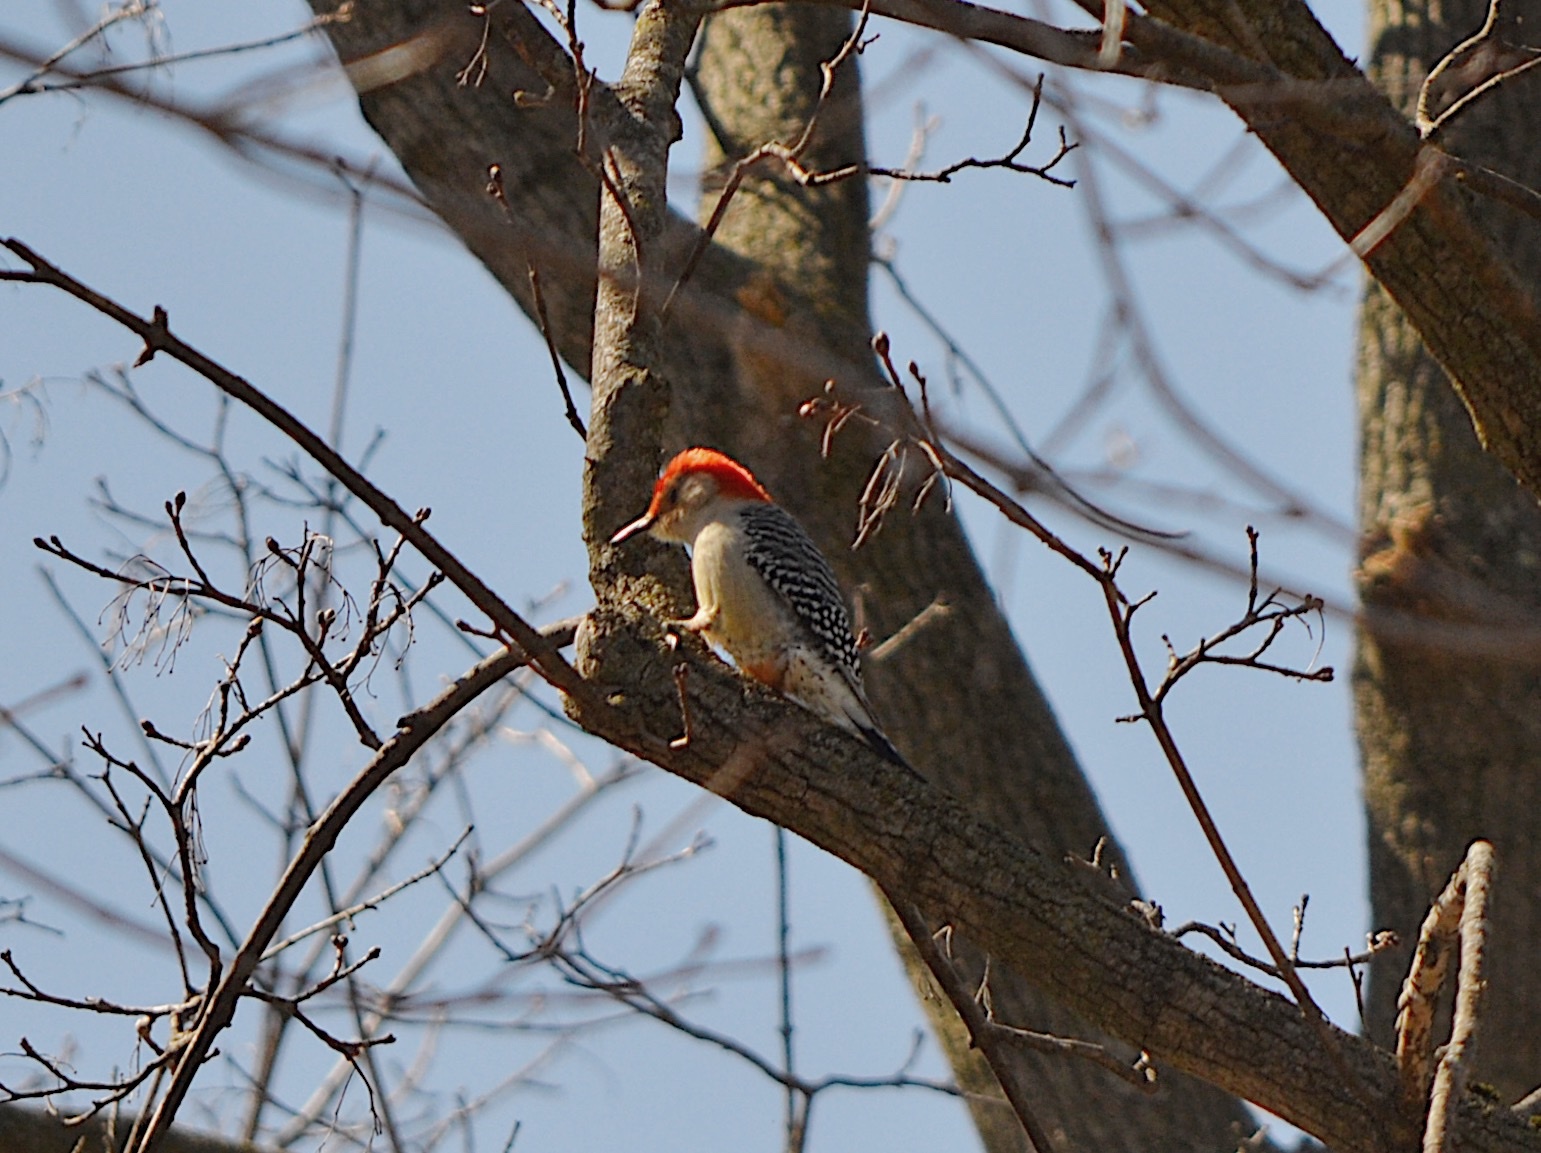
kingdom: Animalia
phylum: Chordata
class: Aves
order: Piciformes
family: Picidae
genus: Melanerpes
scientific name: Melanerpes carolinus
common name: Red-bellied woodpecker
